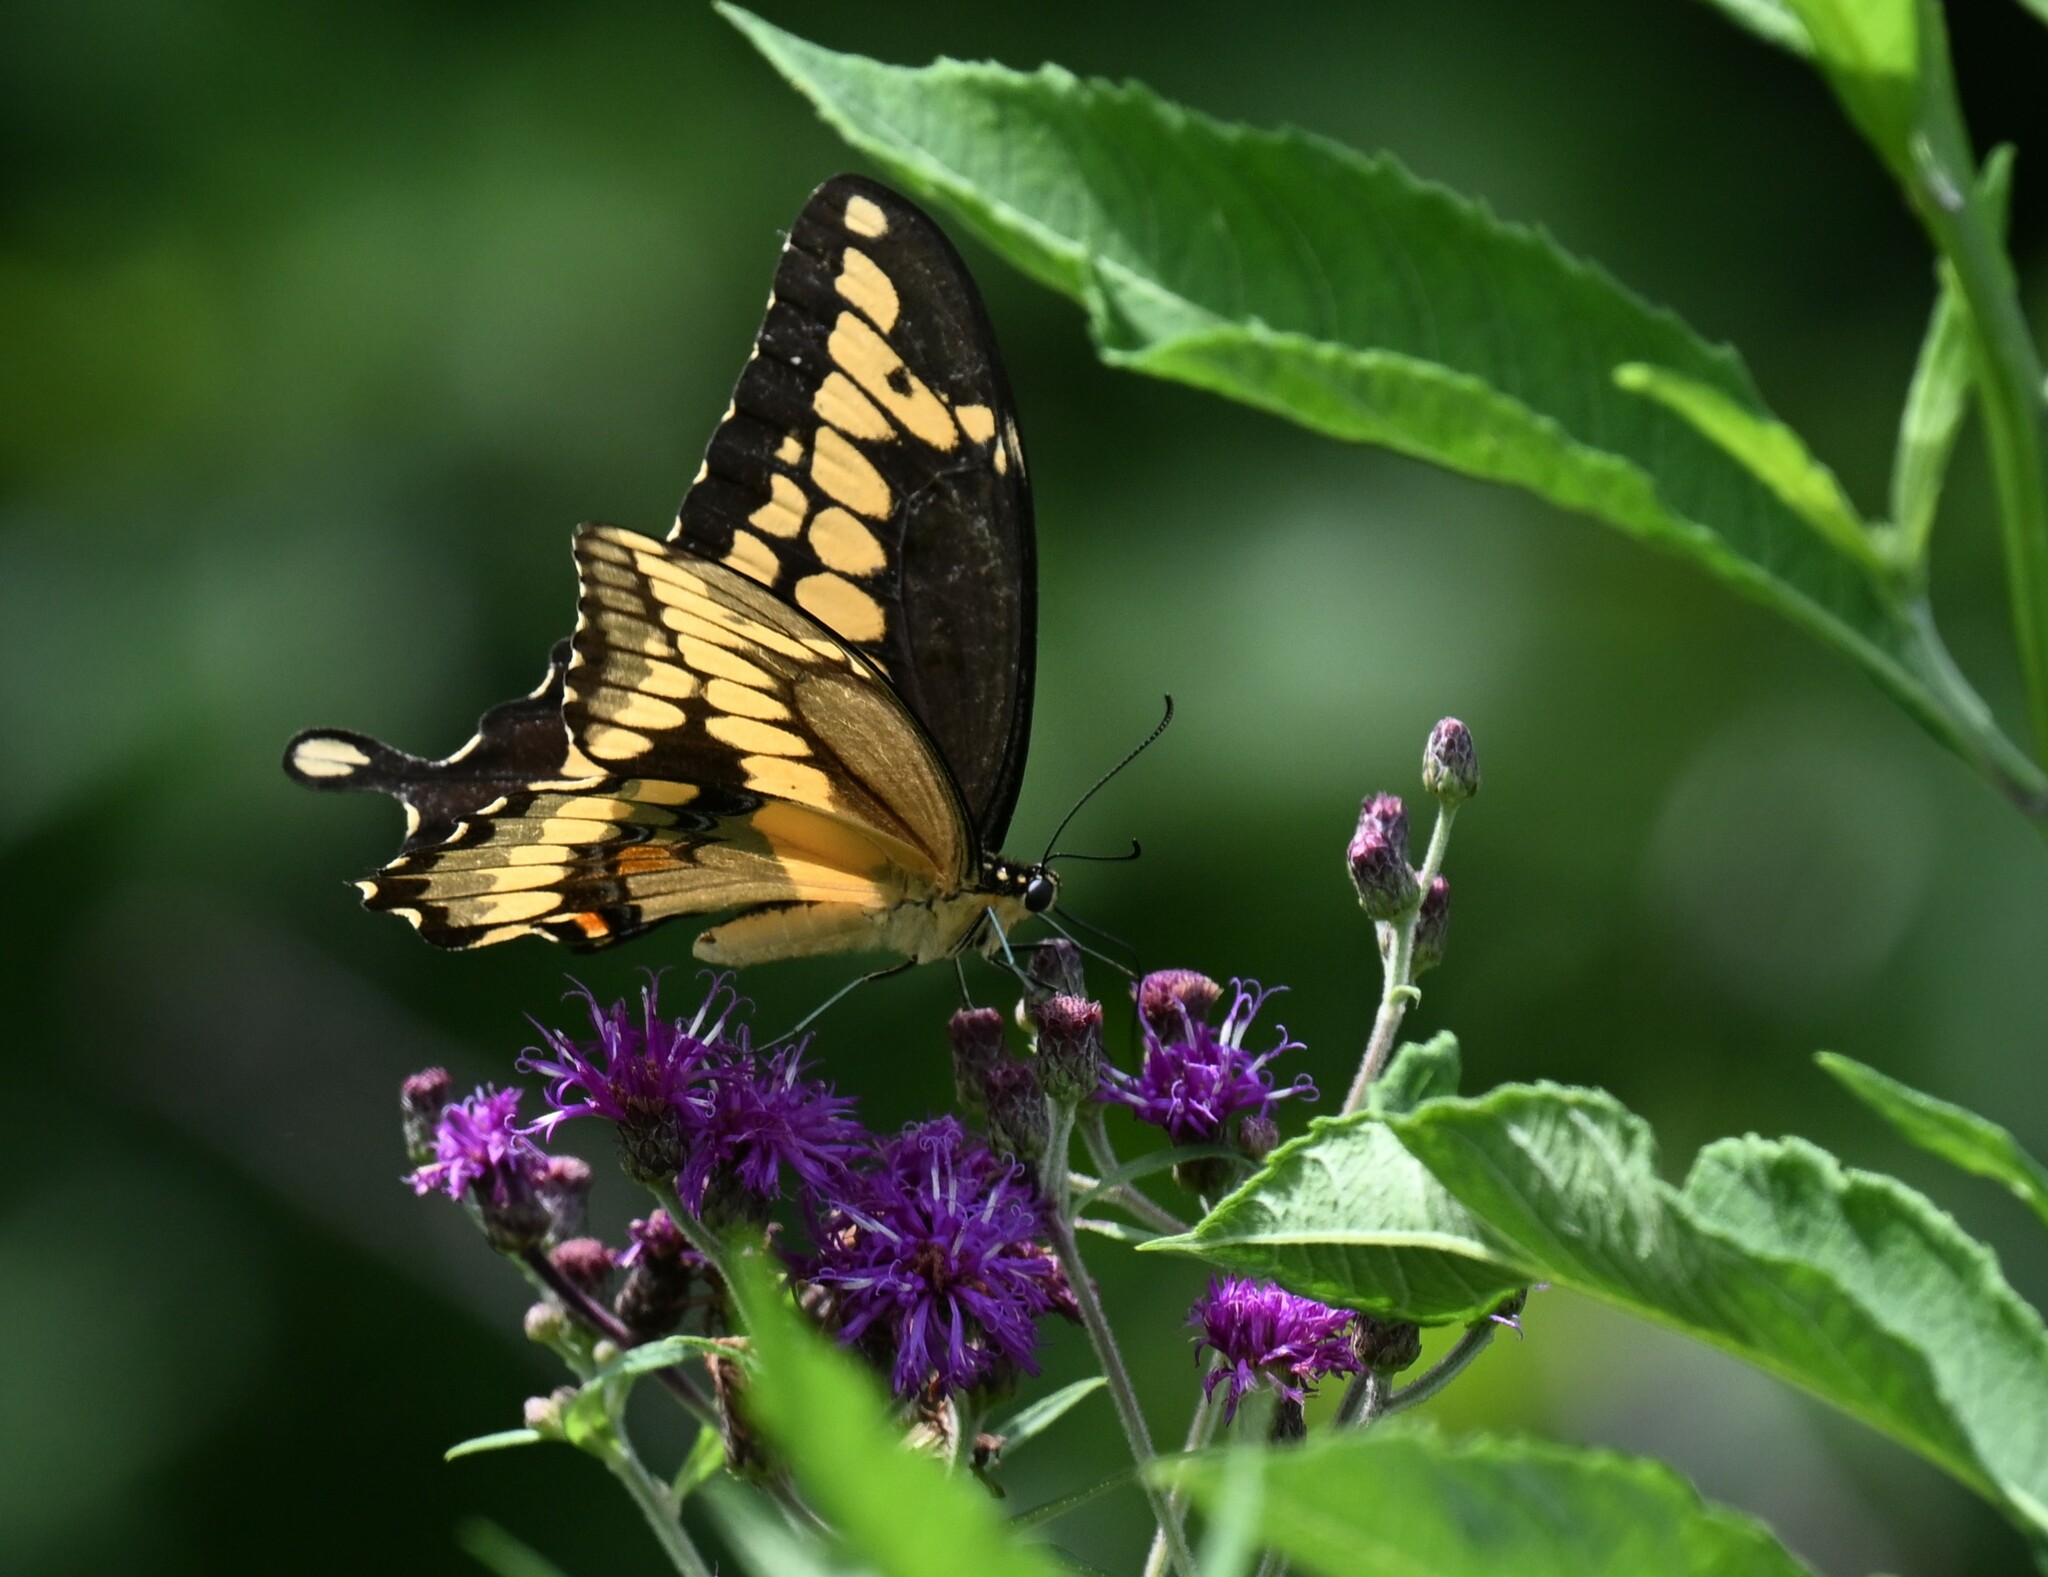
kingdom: Animalia
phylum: Arthropoda
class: Insecta
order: Lepidoptera
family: Papilionidae
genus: Papilio
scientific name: Papilio cresphontes
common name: Giant swallowtail
